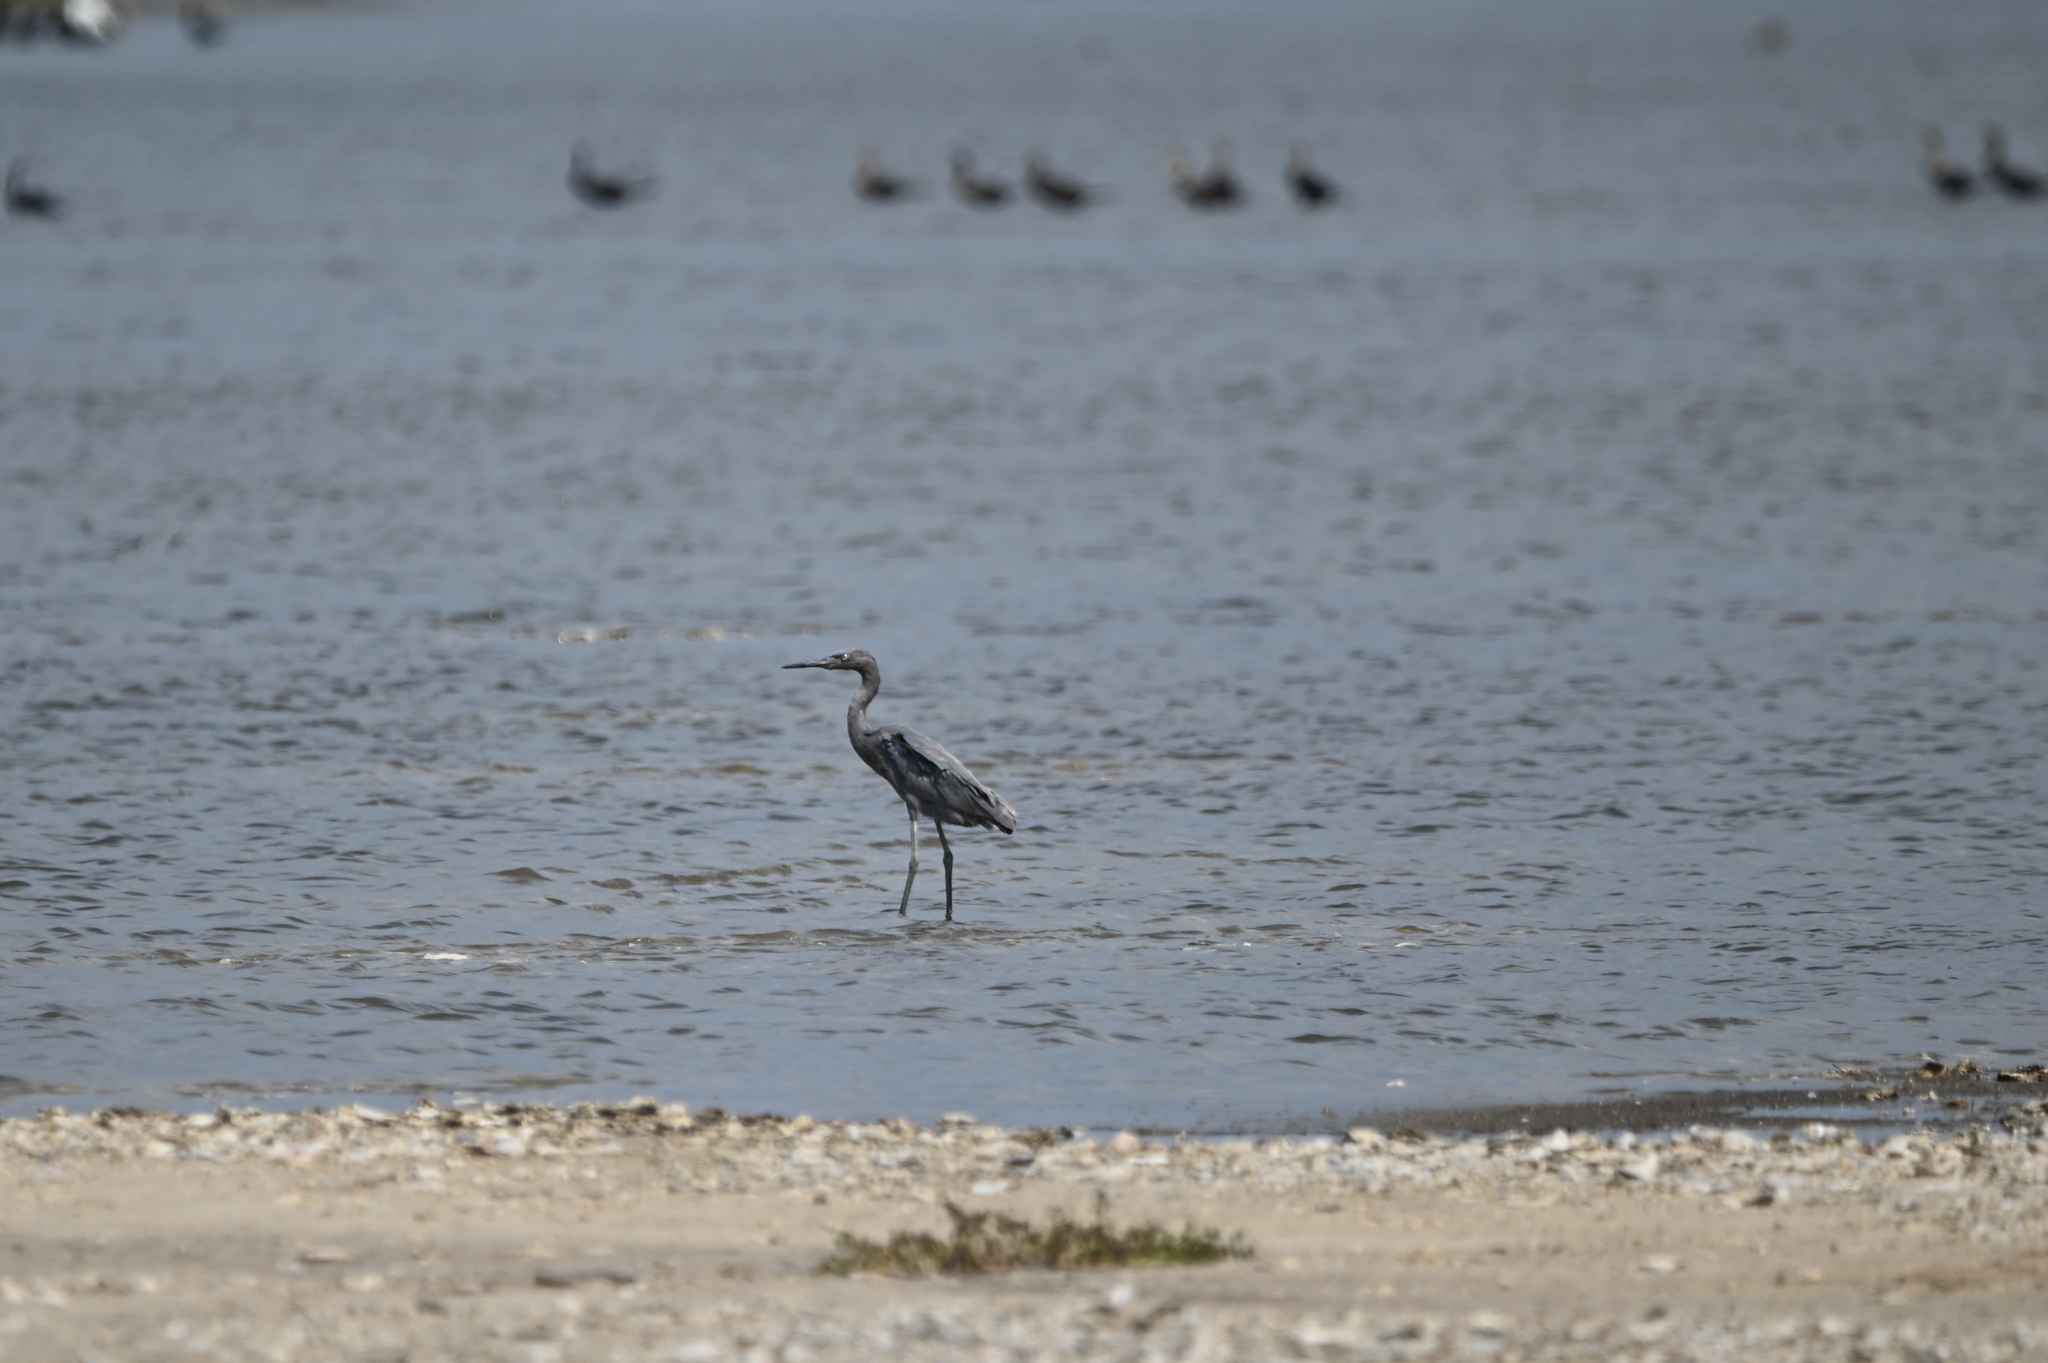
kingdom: Animalia
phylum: Chordata
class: Aves
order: Pelecaniformes
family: Ardeidae
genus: Egretta
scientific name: Egretta rufescens
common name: Reddish egret
